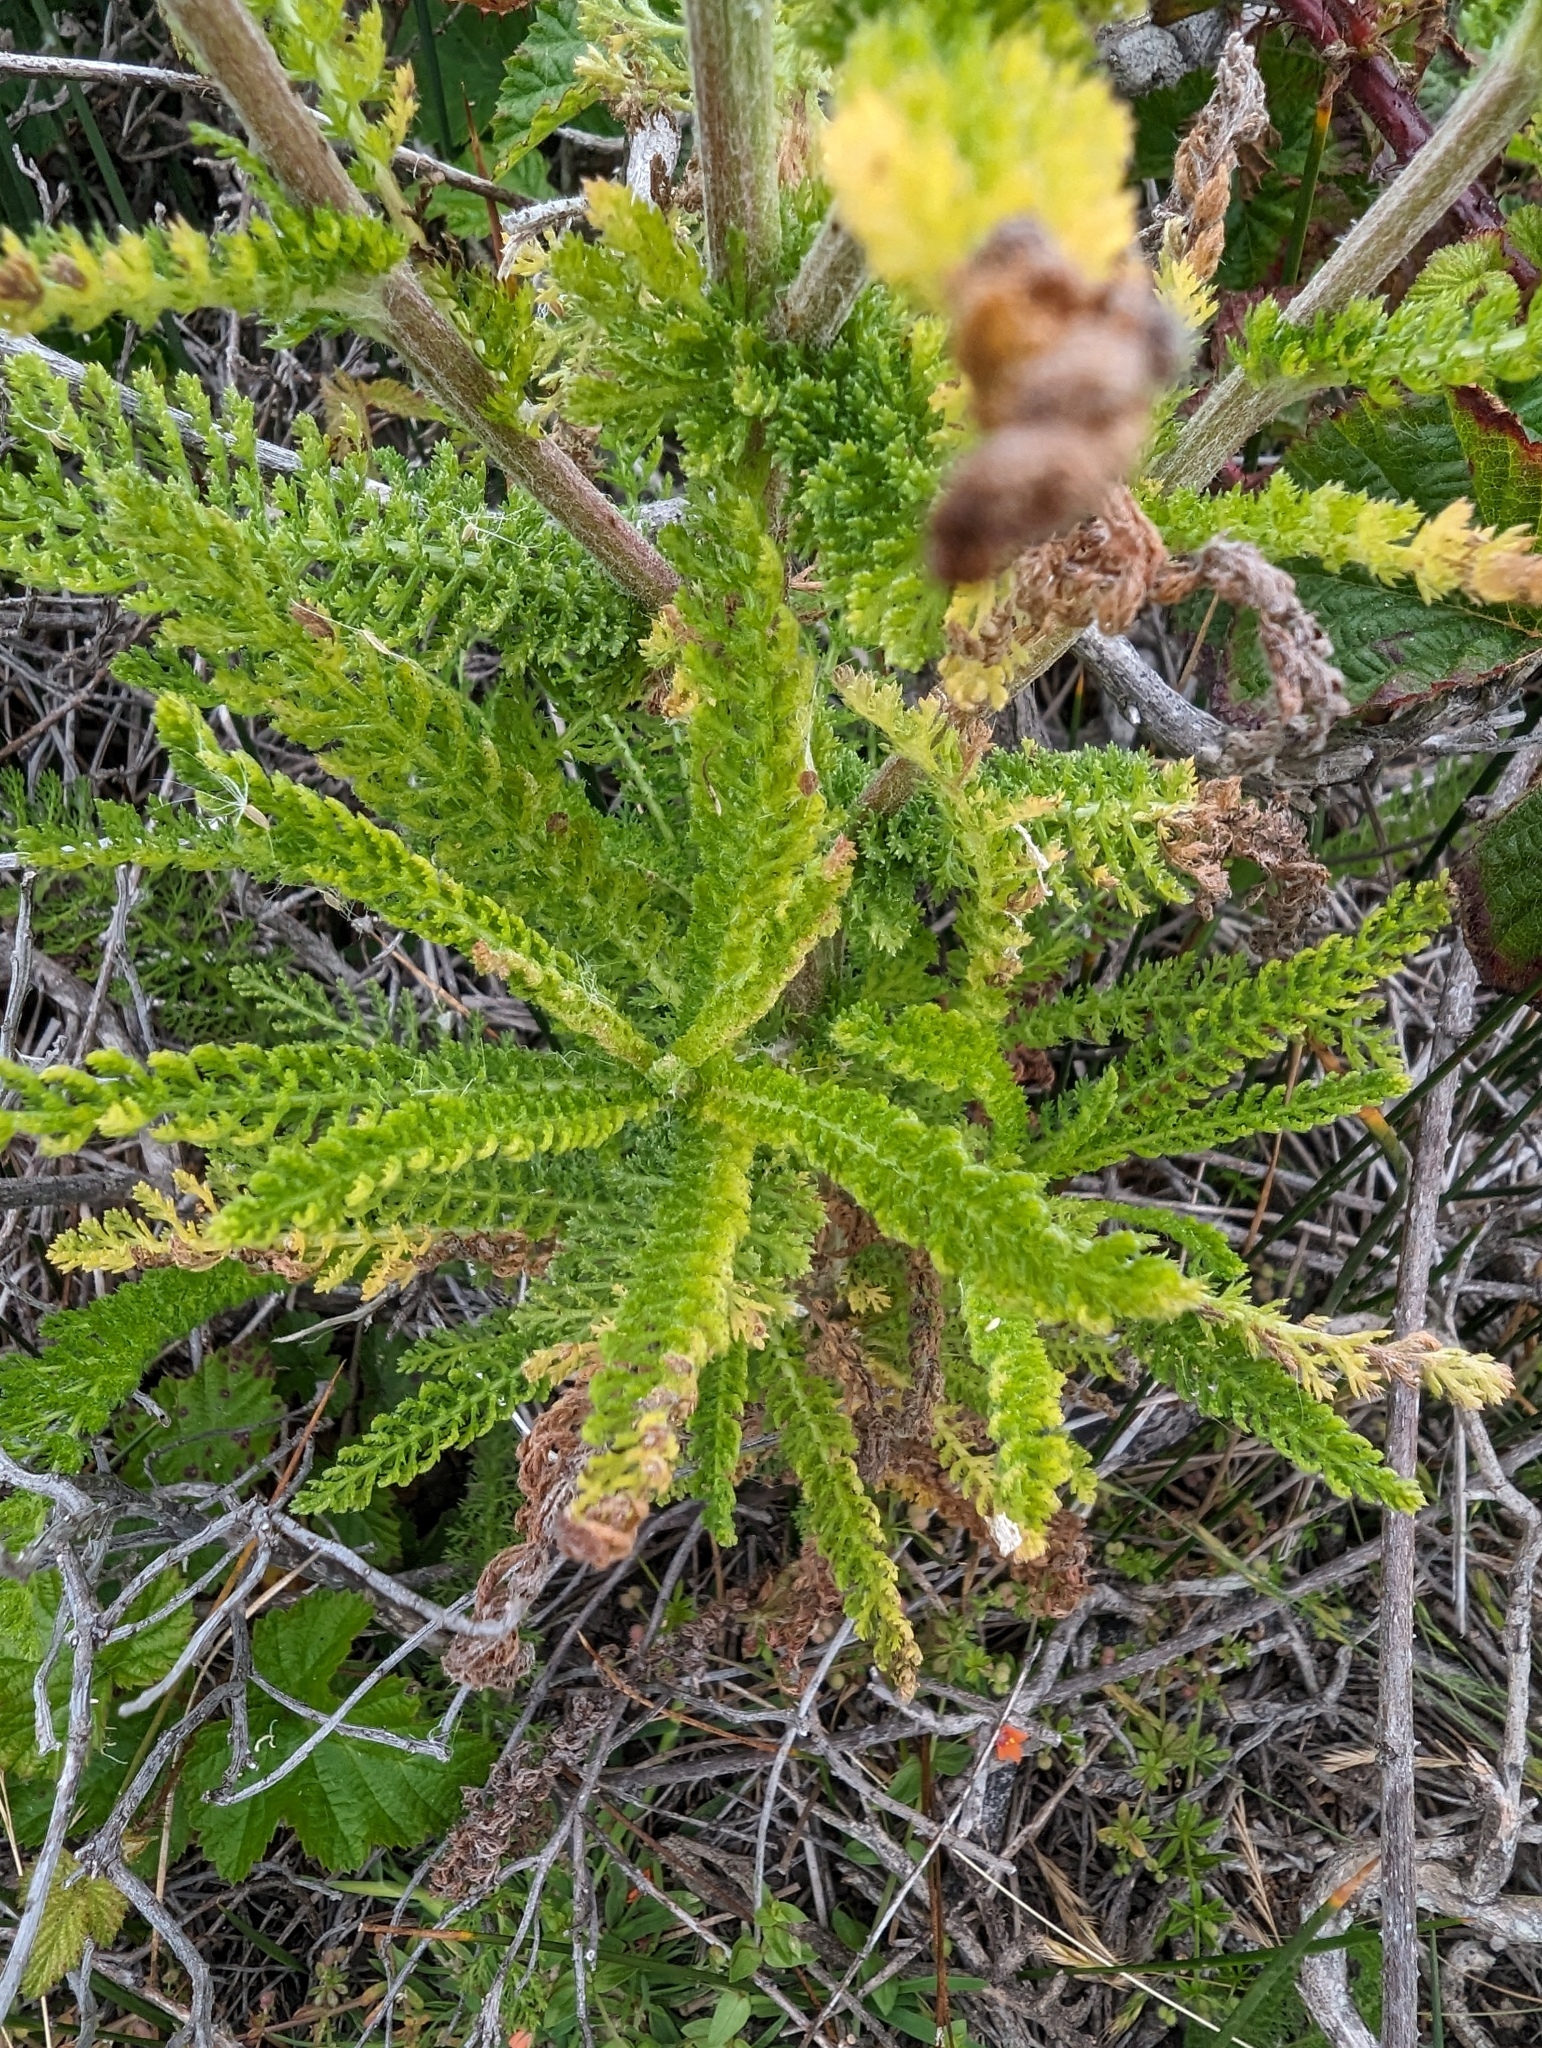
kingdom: Plantae
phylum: Tracheophyta
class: Magnoliopsida
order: Asterales
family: Asteraceae
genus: Achillea
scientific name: Achillea millefolium
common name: Yarrow
